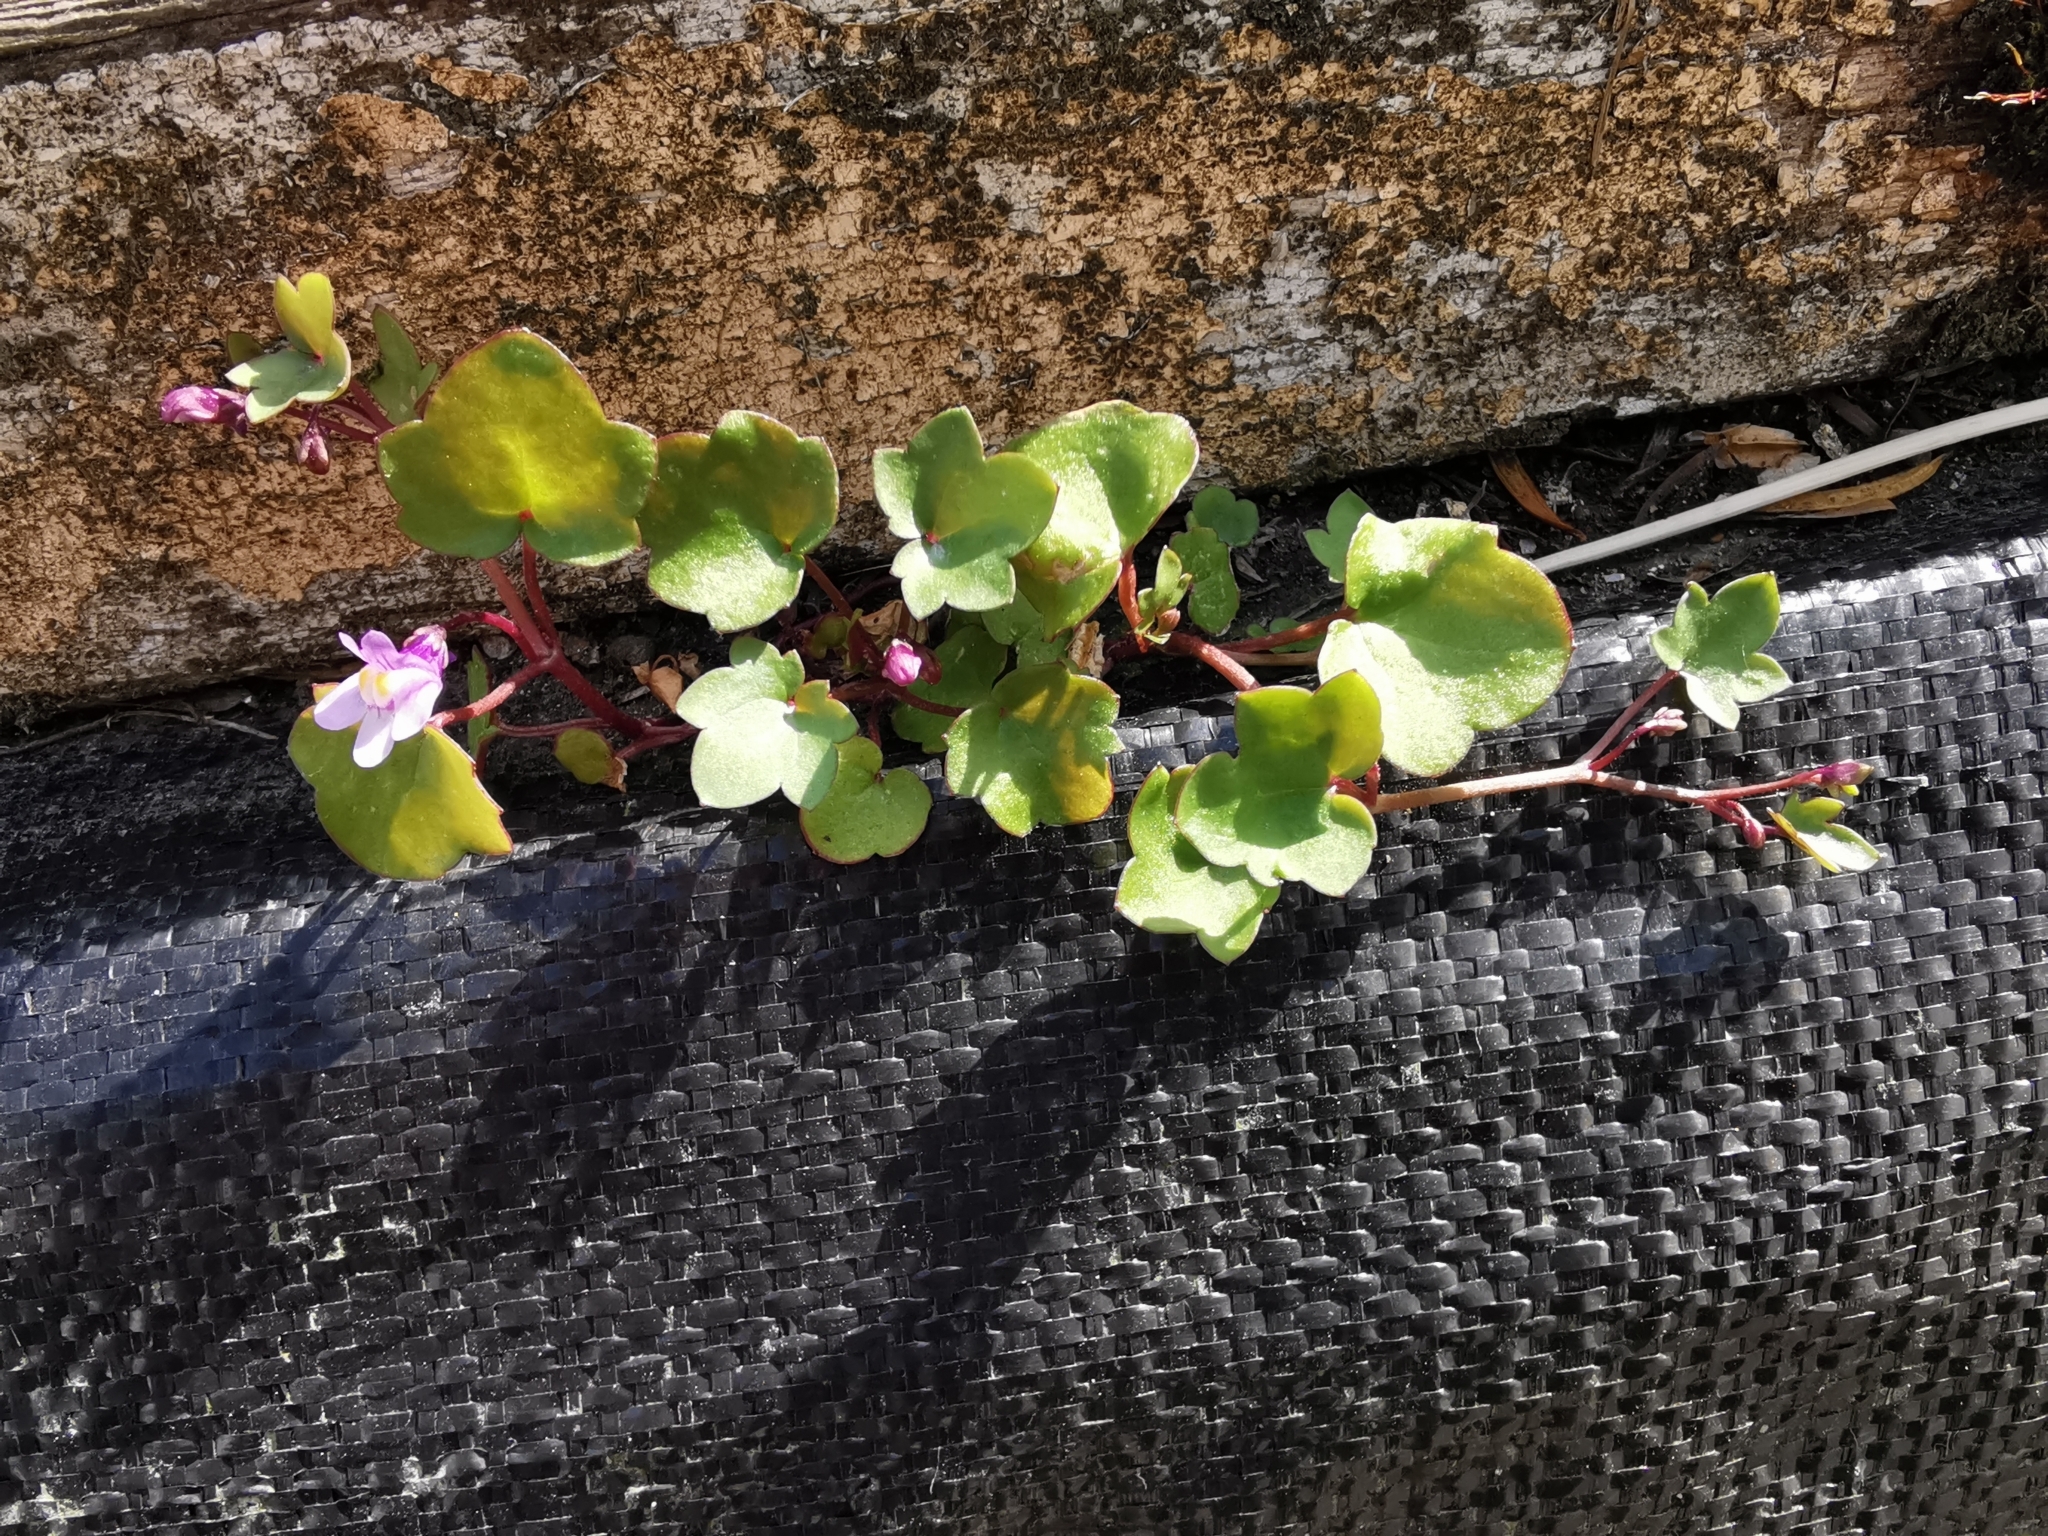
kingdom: Plantae
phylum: Tracheophyta
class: Magnoliopsida
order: Lamiales
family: Plantaginaceae
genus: Cymbalaria
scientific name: Cymbalaria muralis
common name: Ivy-leaved toadflax
